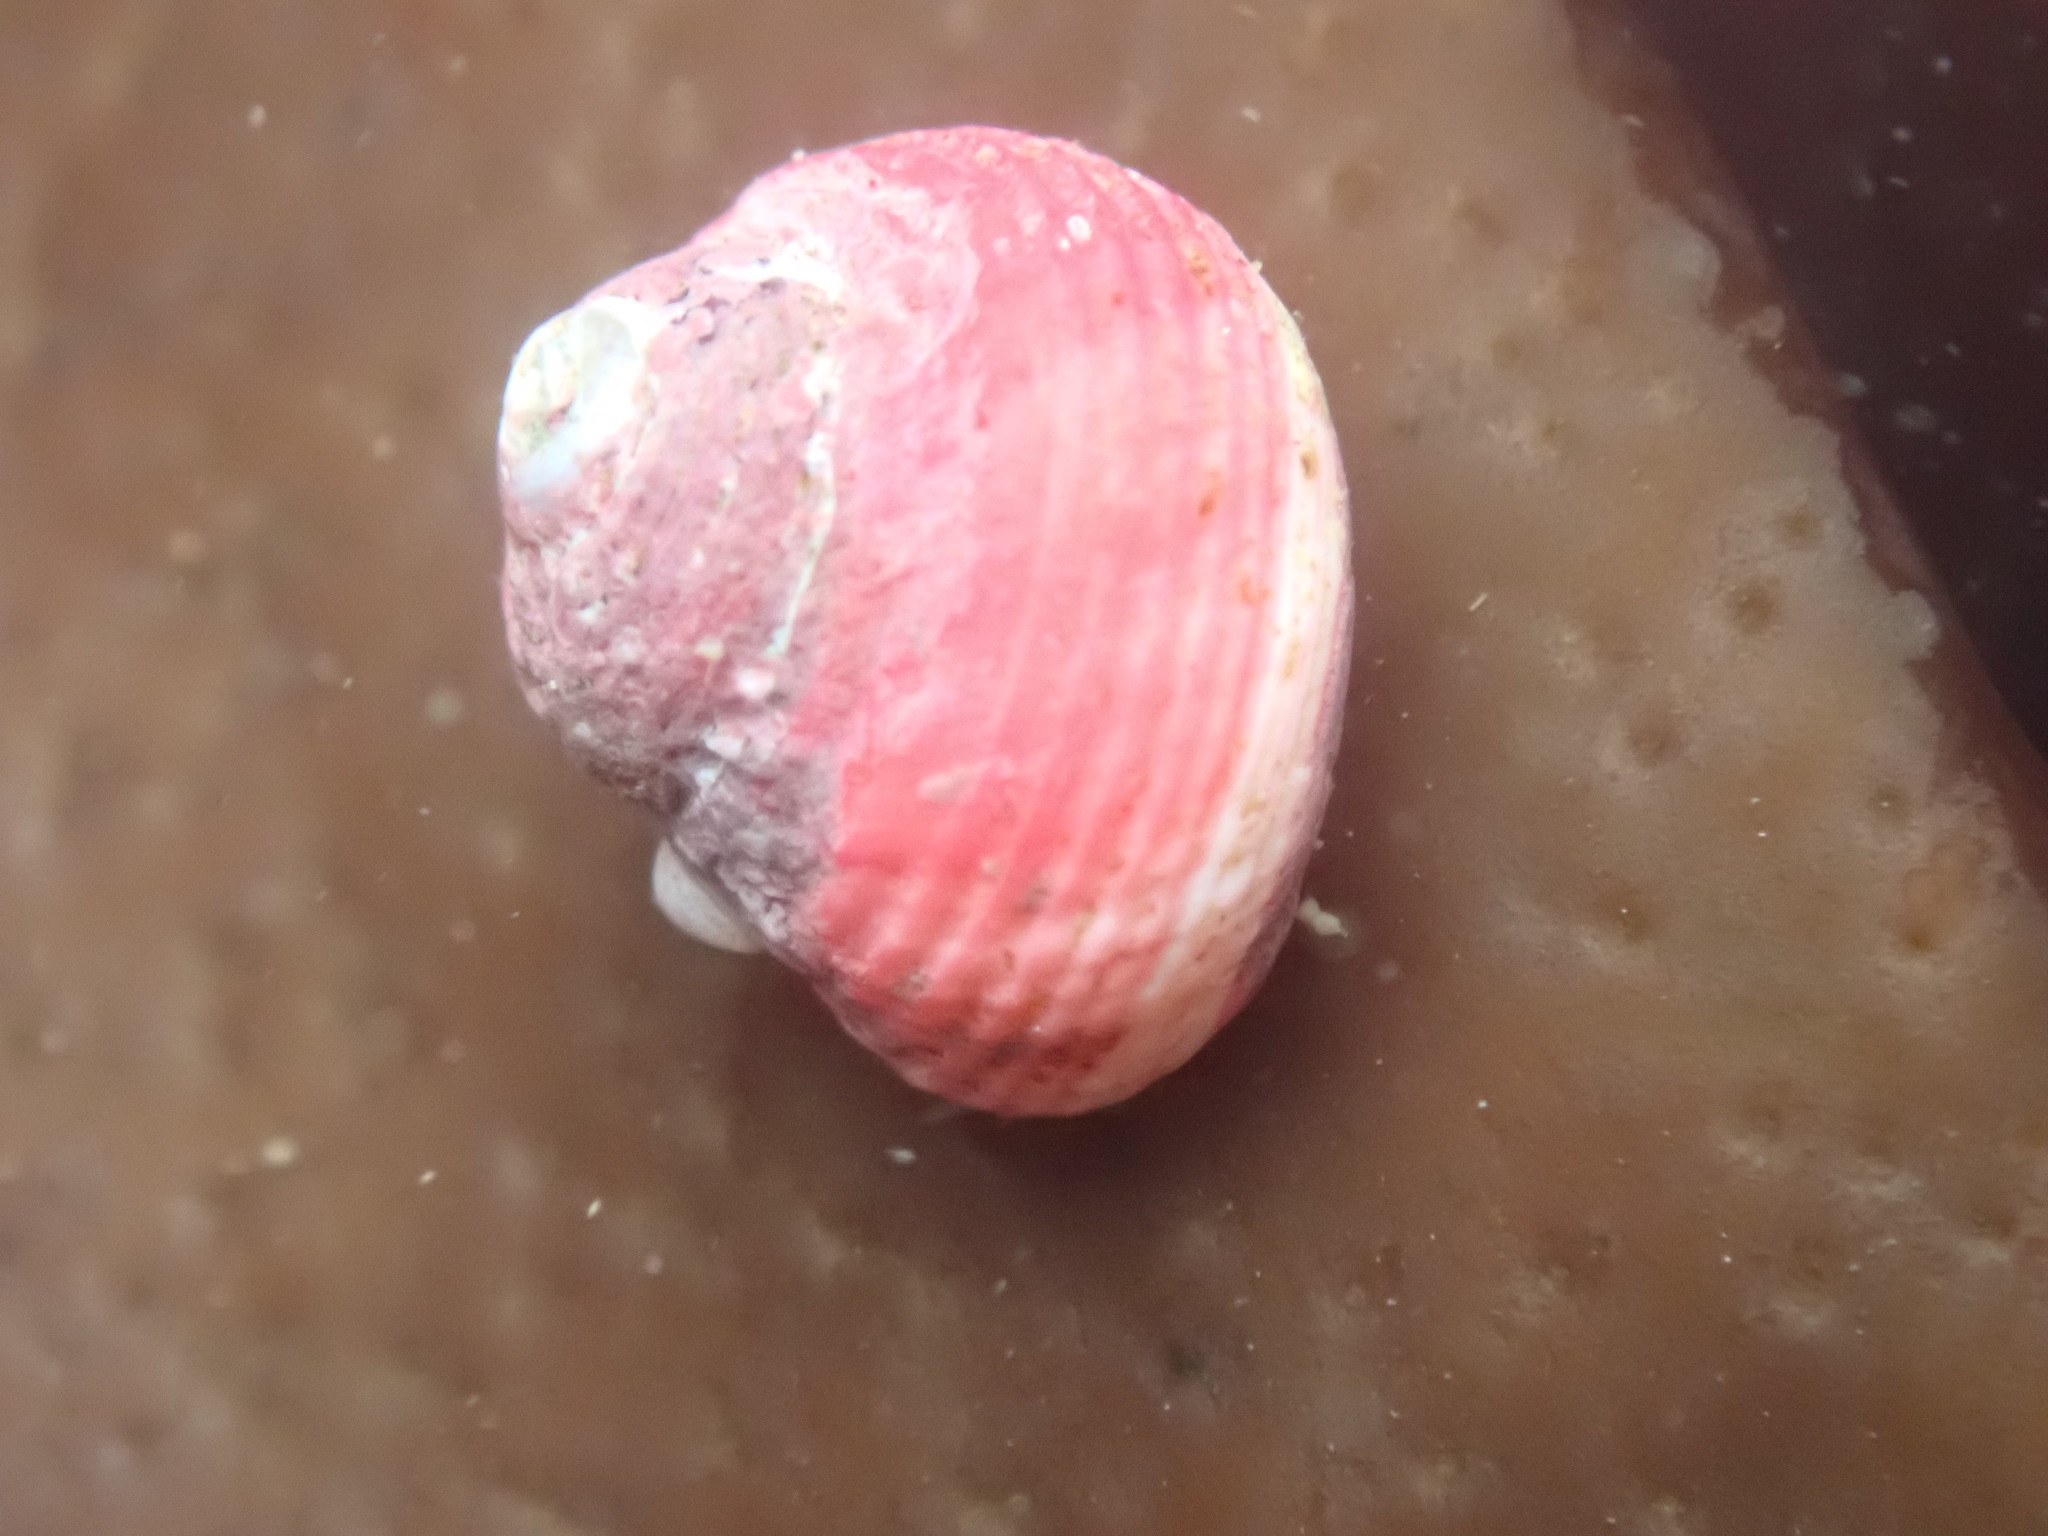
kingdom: Animalia
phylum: Mollusca
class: Gastropoda
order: Trochida
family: Colloniidae
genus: Gigahomalopoma
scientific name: Gigahomalopoma luridum
